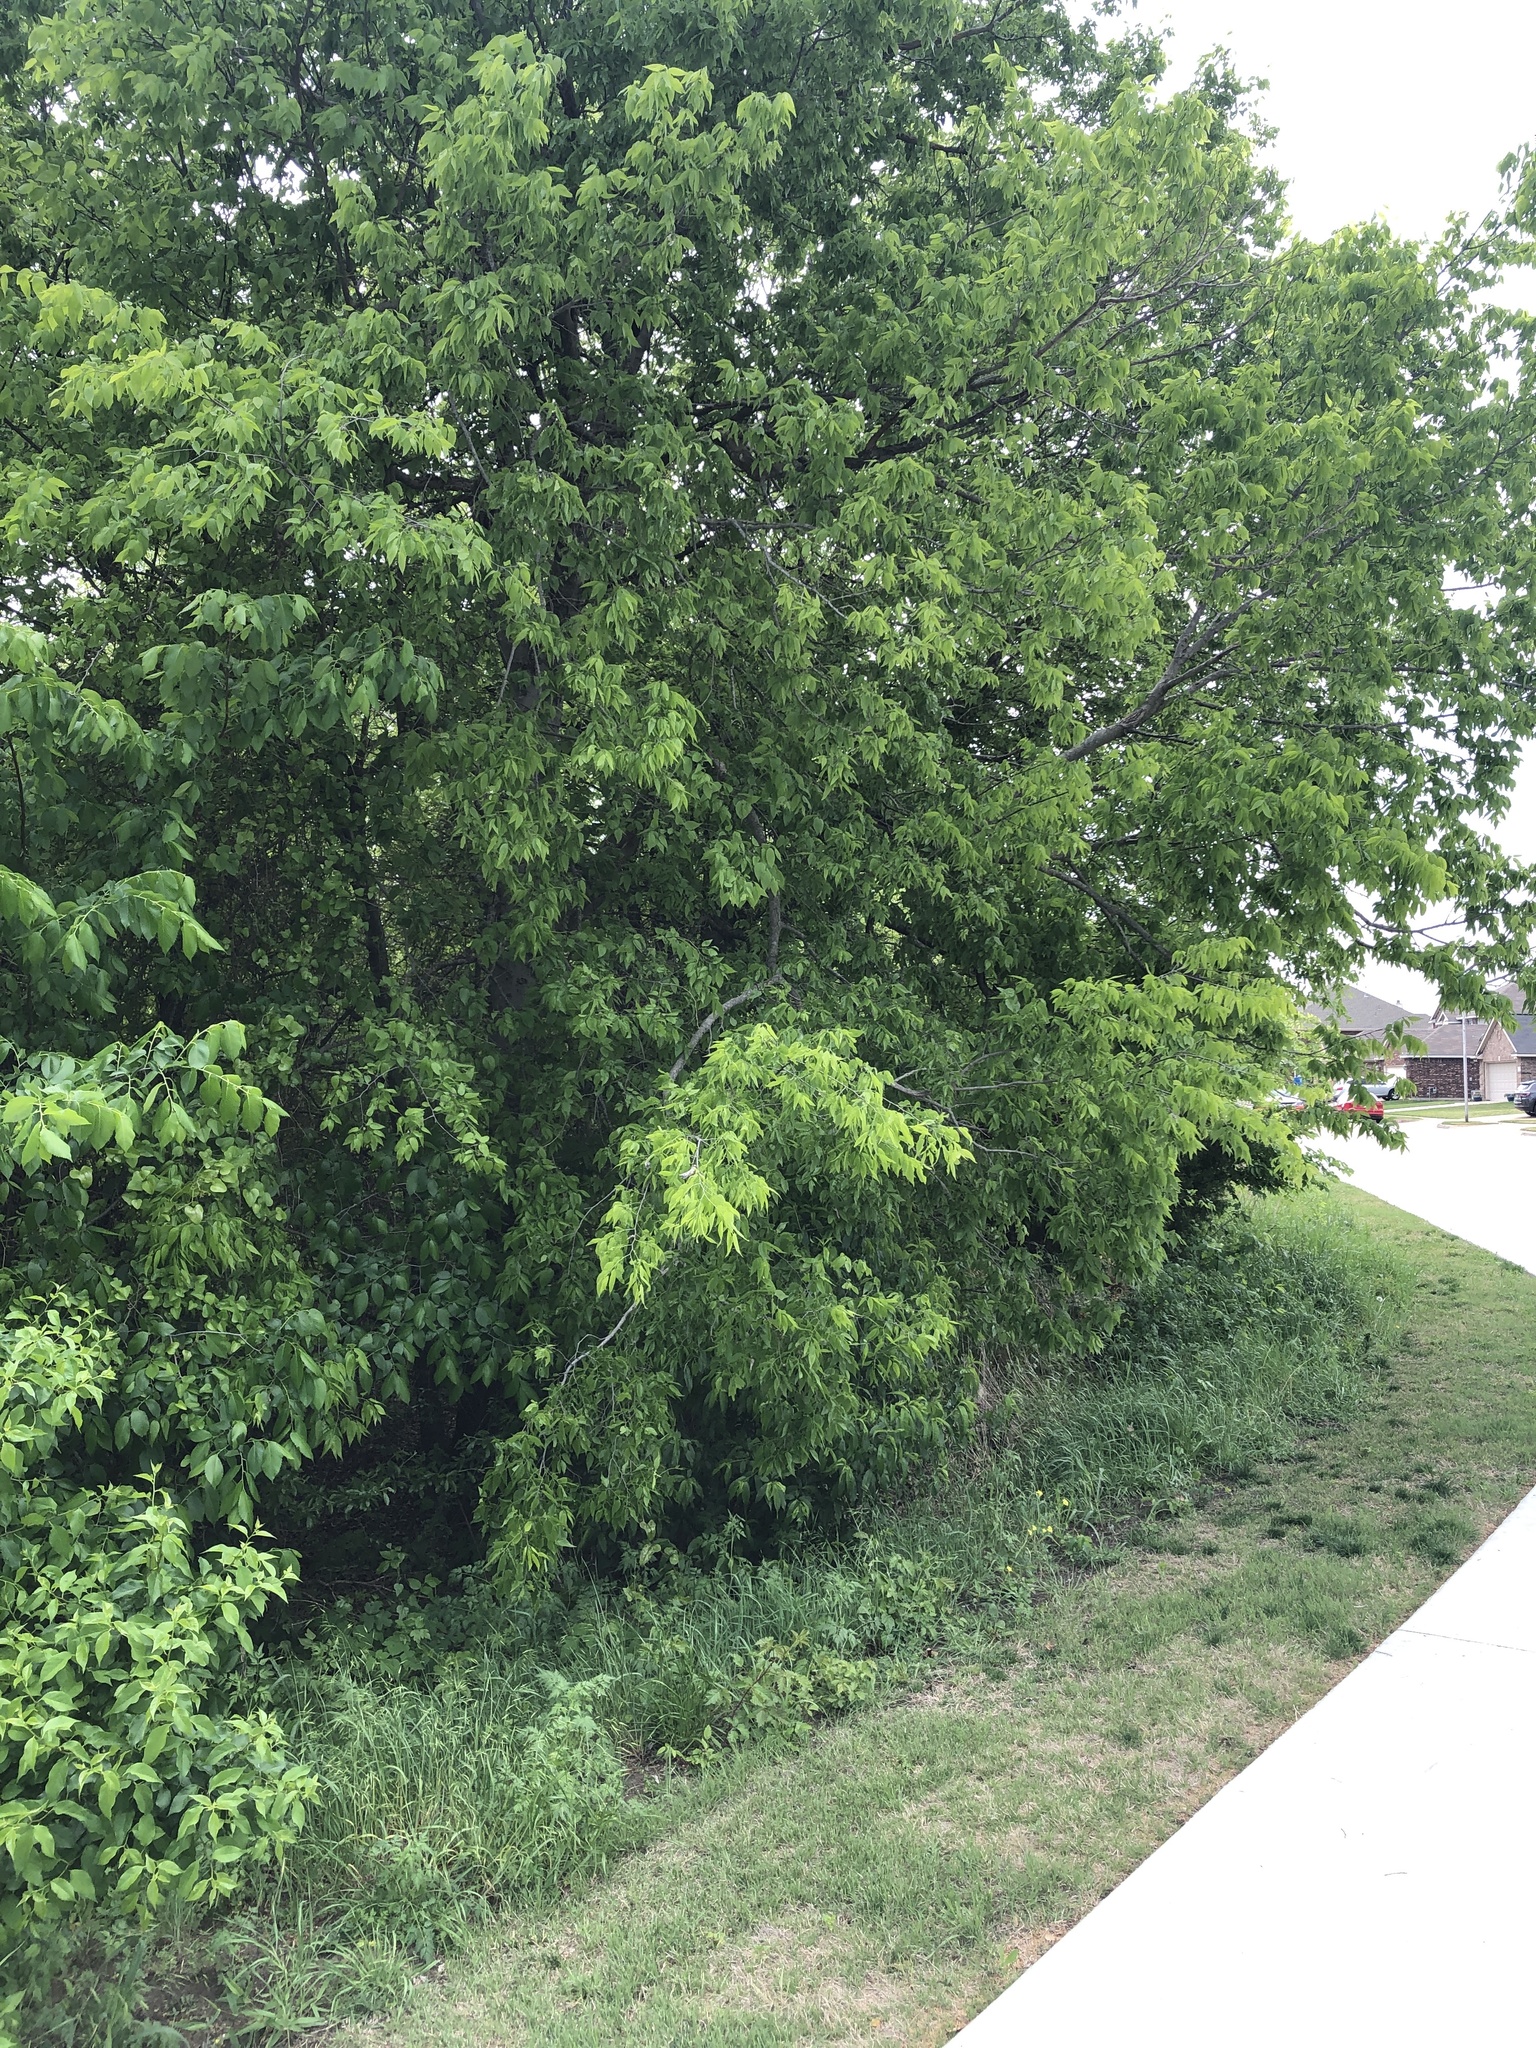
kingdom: Plantae
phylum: Tracheophyta
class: Magnoliopsida
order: Rosales
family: Cannabaceae
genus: Celtis
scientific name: Celtis laevigata
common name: Sugarberry
